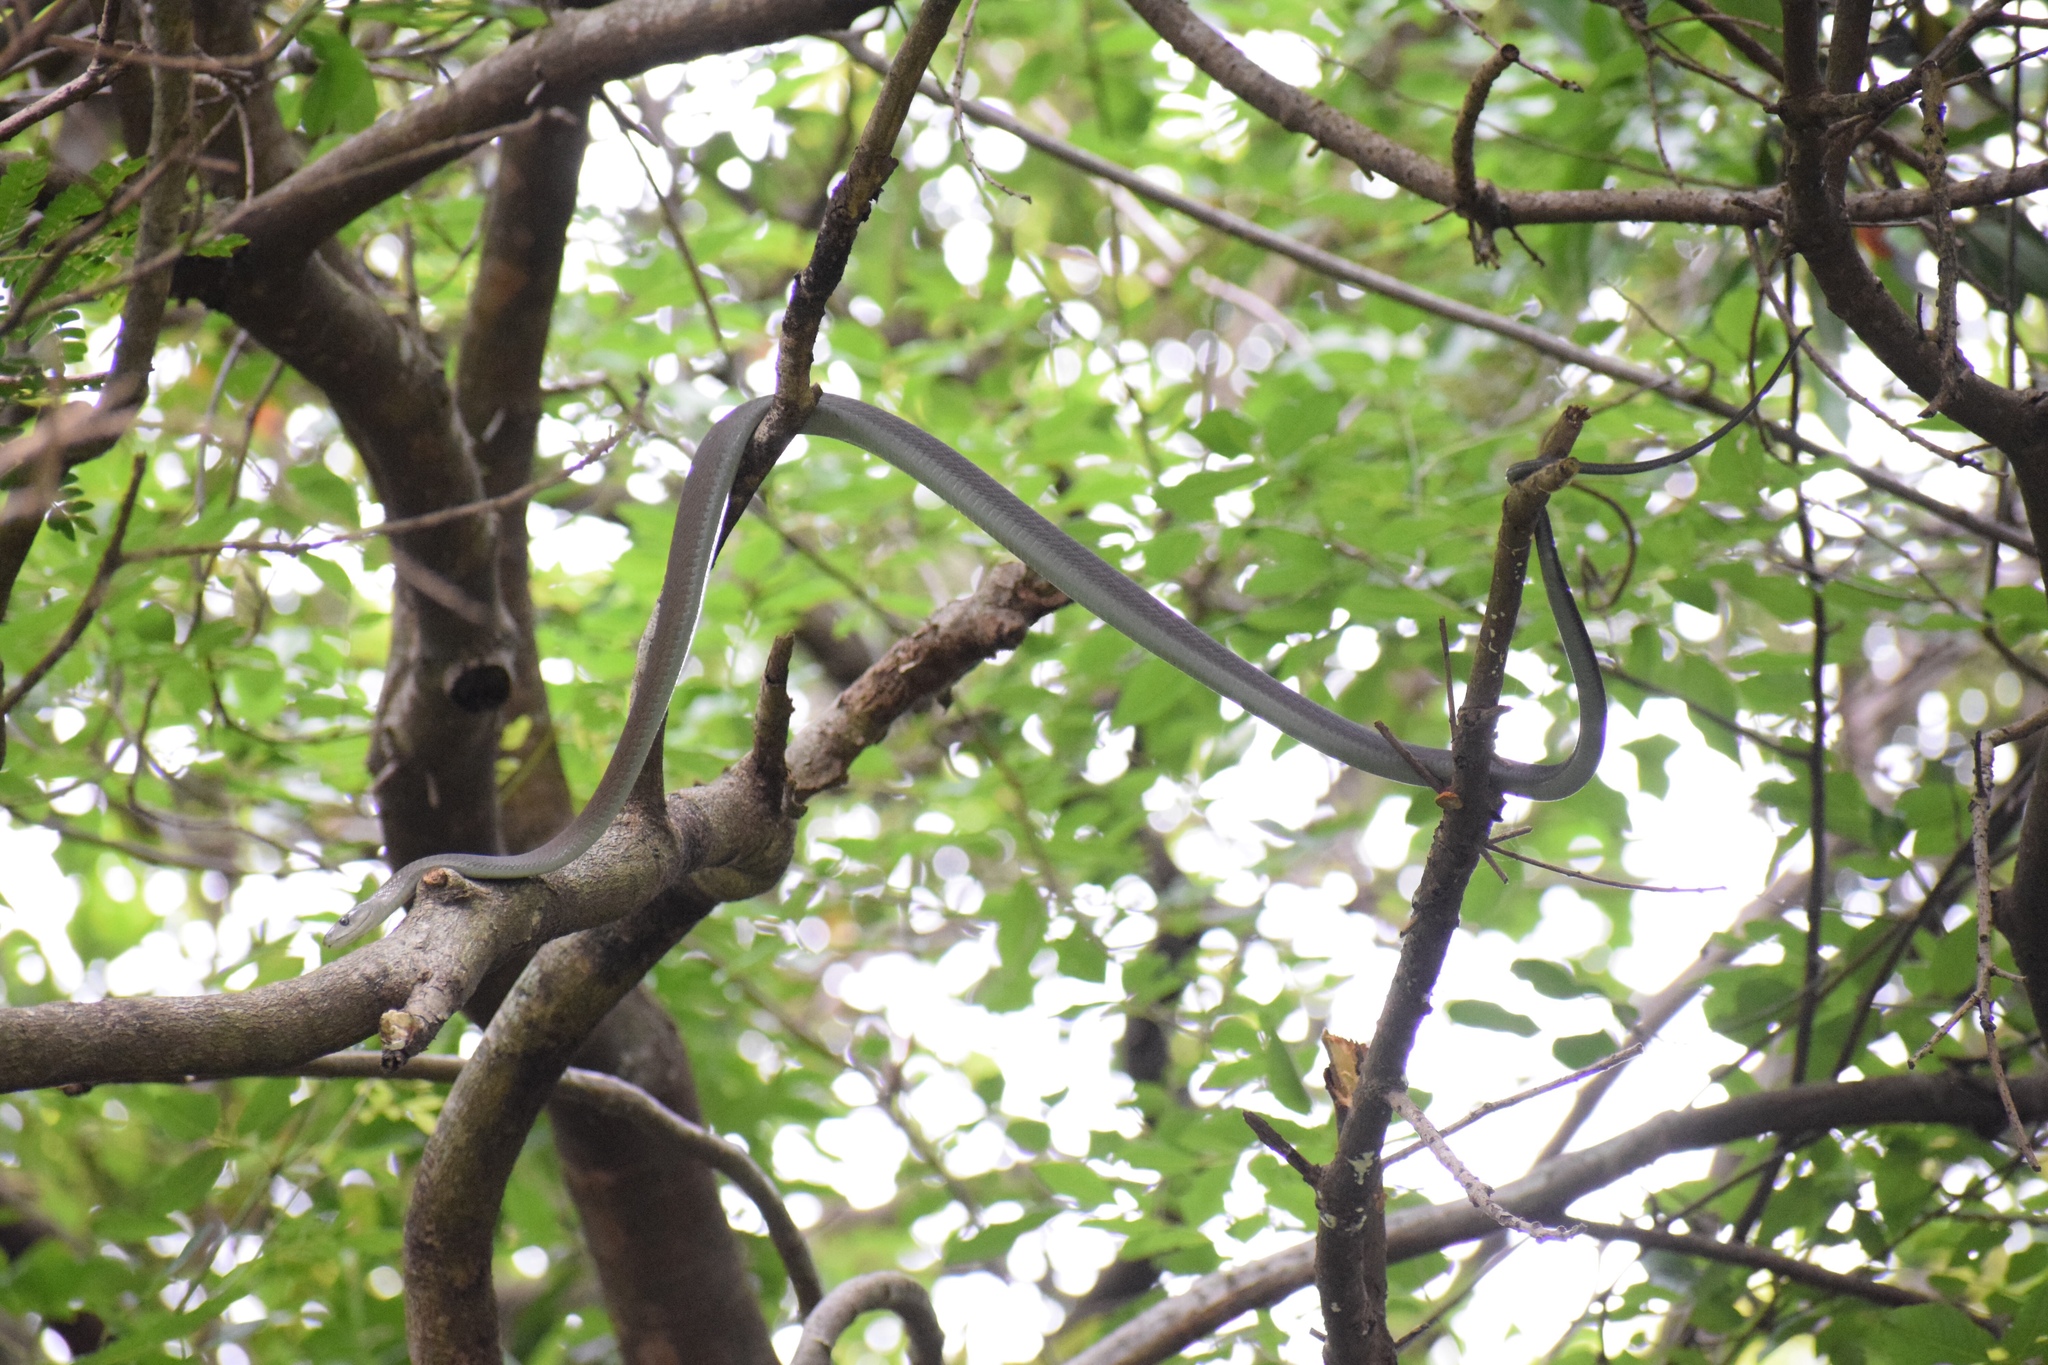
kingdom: Animalia
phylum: Chordata
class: Squamata
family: Elapidae
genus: Dendroaspis
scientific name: Dendroaspis polylepis
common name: Black mamba
